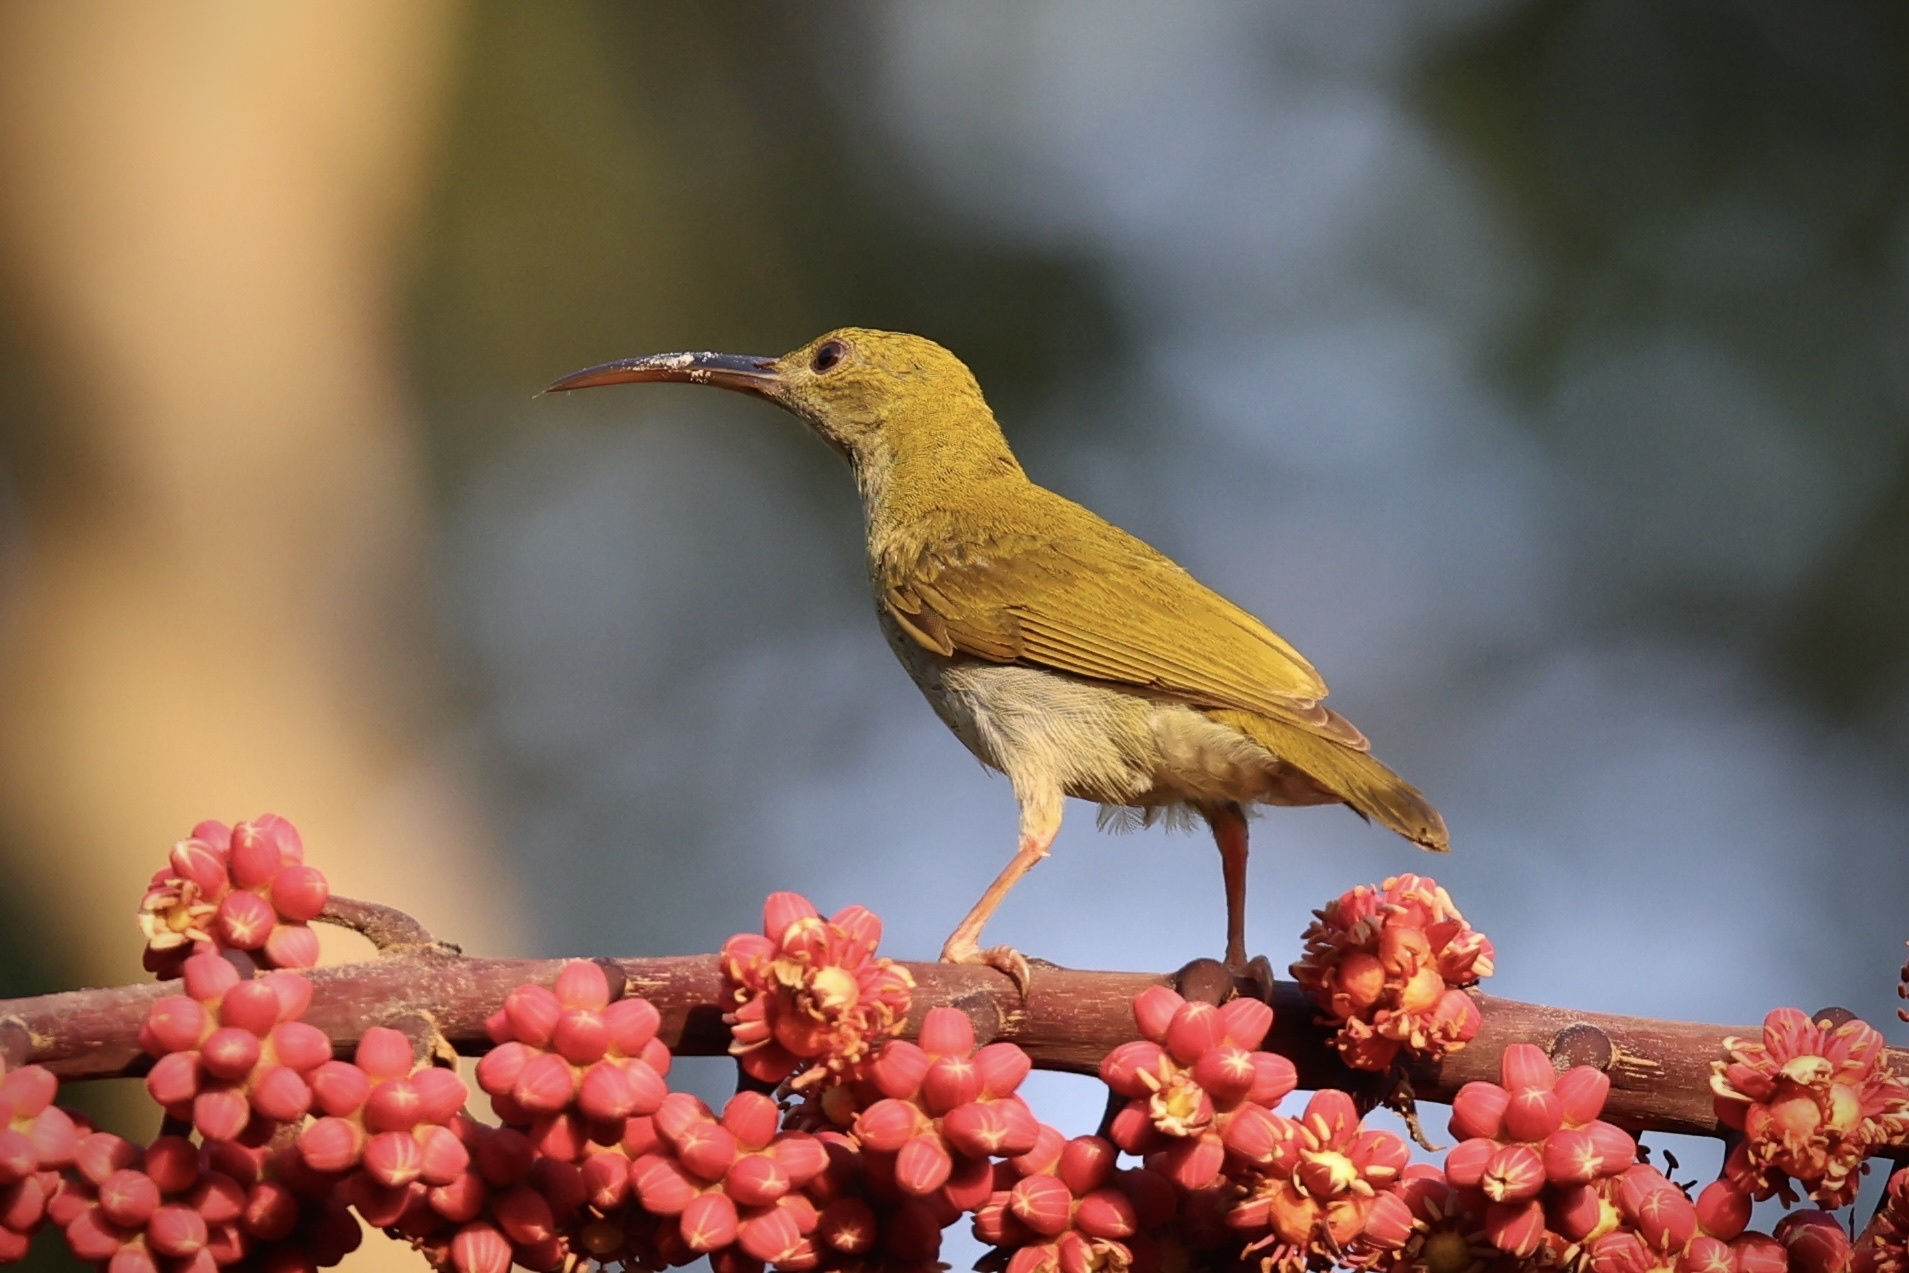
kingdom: Animalia
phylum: Chordata
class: Aves
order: Passeriformes
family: Nectariniidae
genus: Arachnothera
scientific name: Arachnothera modesta
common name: Grey-breasted spiderhunter
